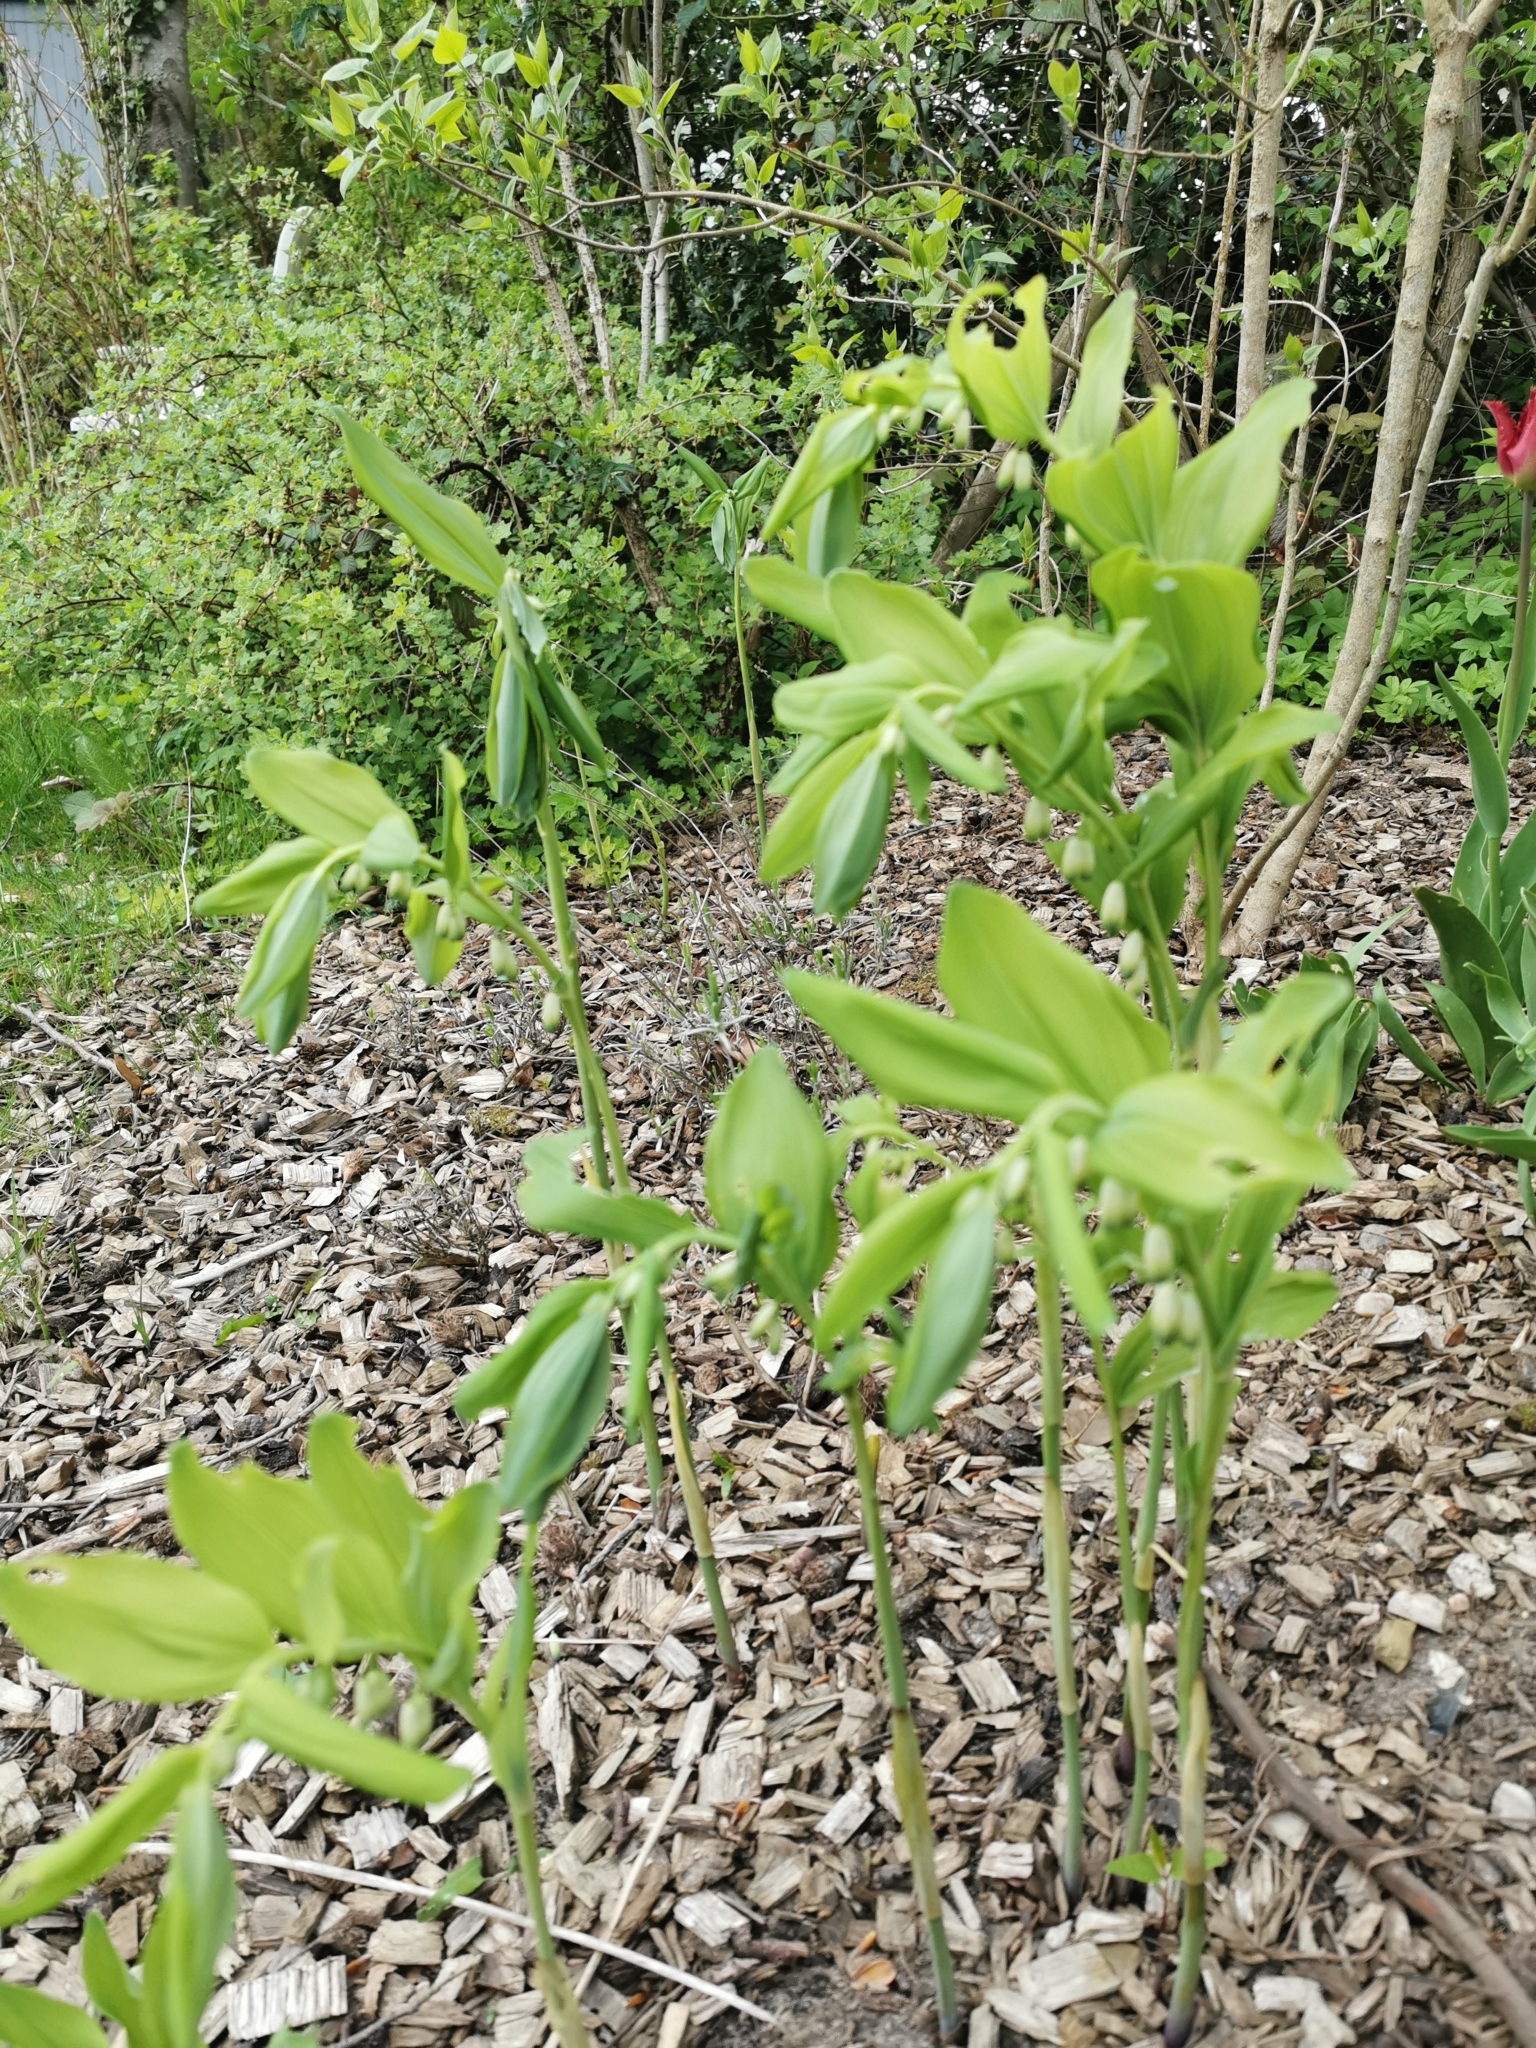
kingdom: Plantae
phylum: Tracheophyta
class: Liliopsida
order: Asparagales
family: Asparagaceae
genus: Polygonatum
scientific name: Polygonatum multiflorum
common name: Solomon's-seal
